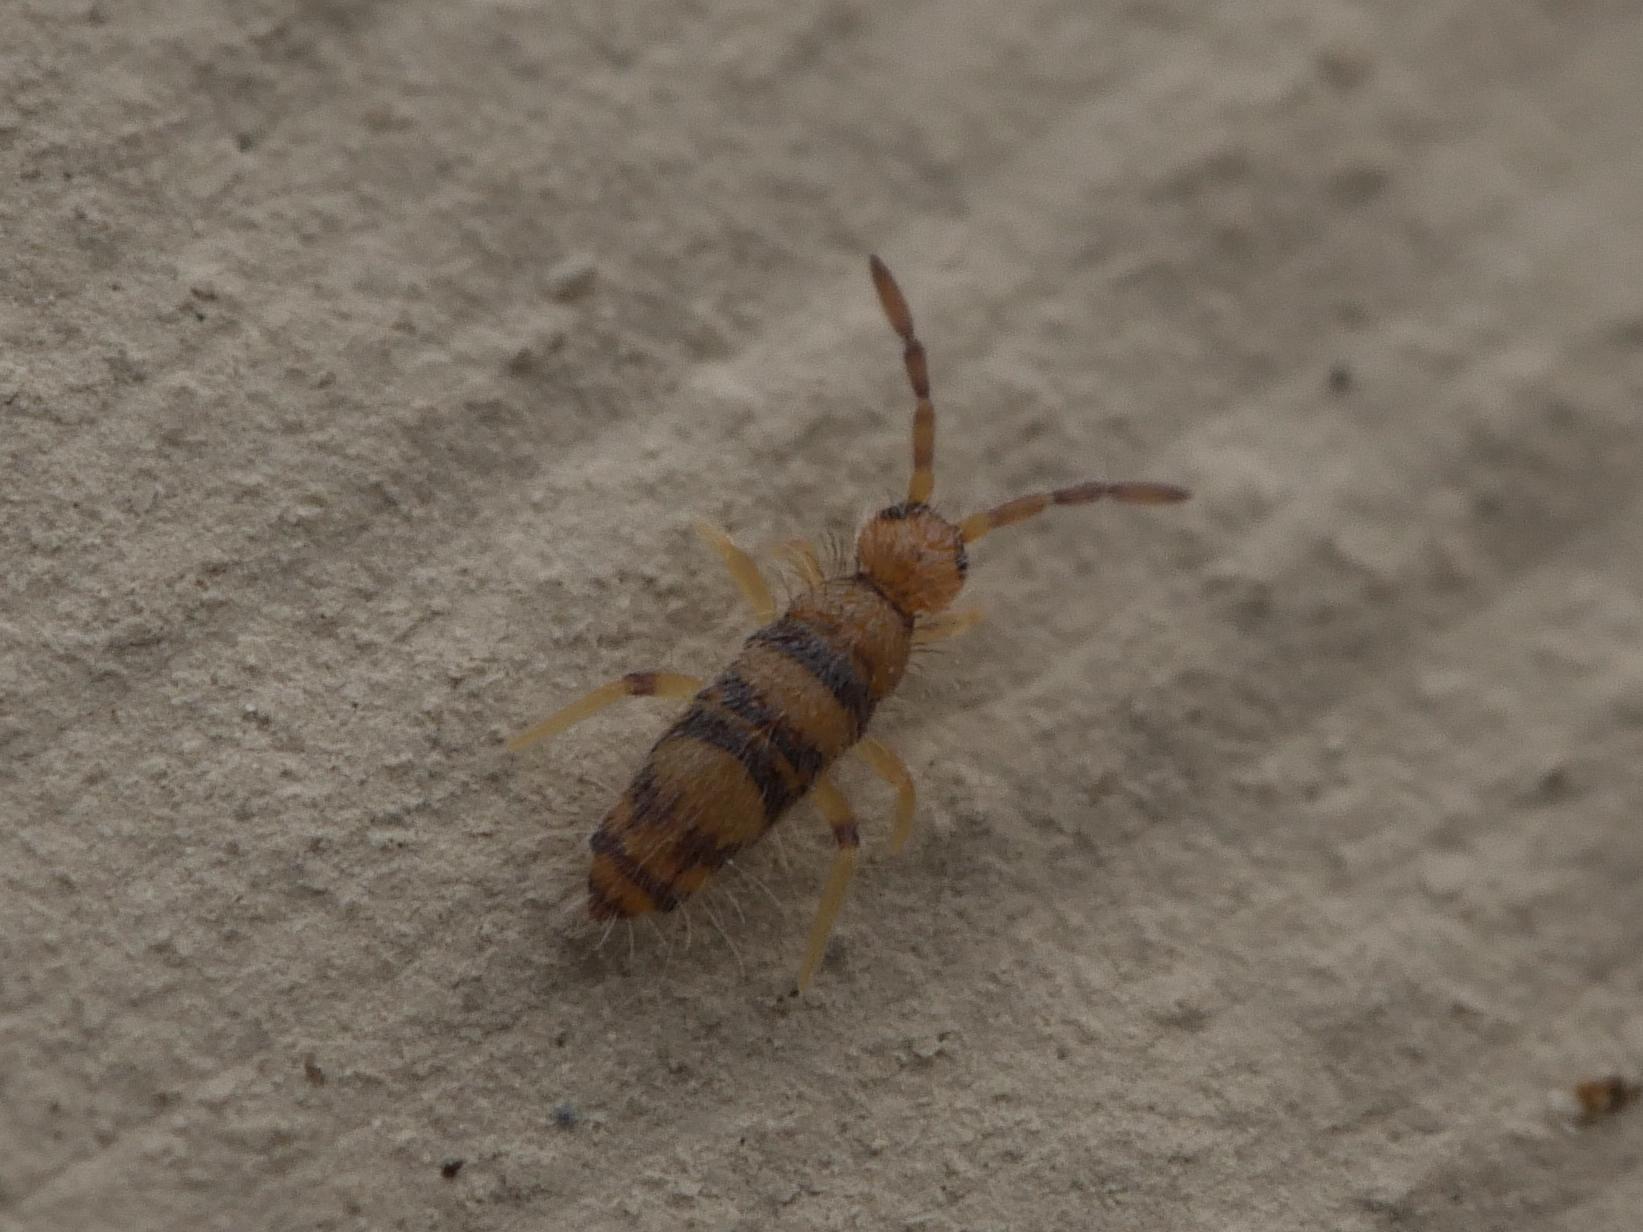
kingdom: Animalia
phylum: Arthropoda
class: Collembola
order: Entomobryomorpha
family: Entomobryidae
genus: Willowsia
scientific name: Willowsia platani
